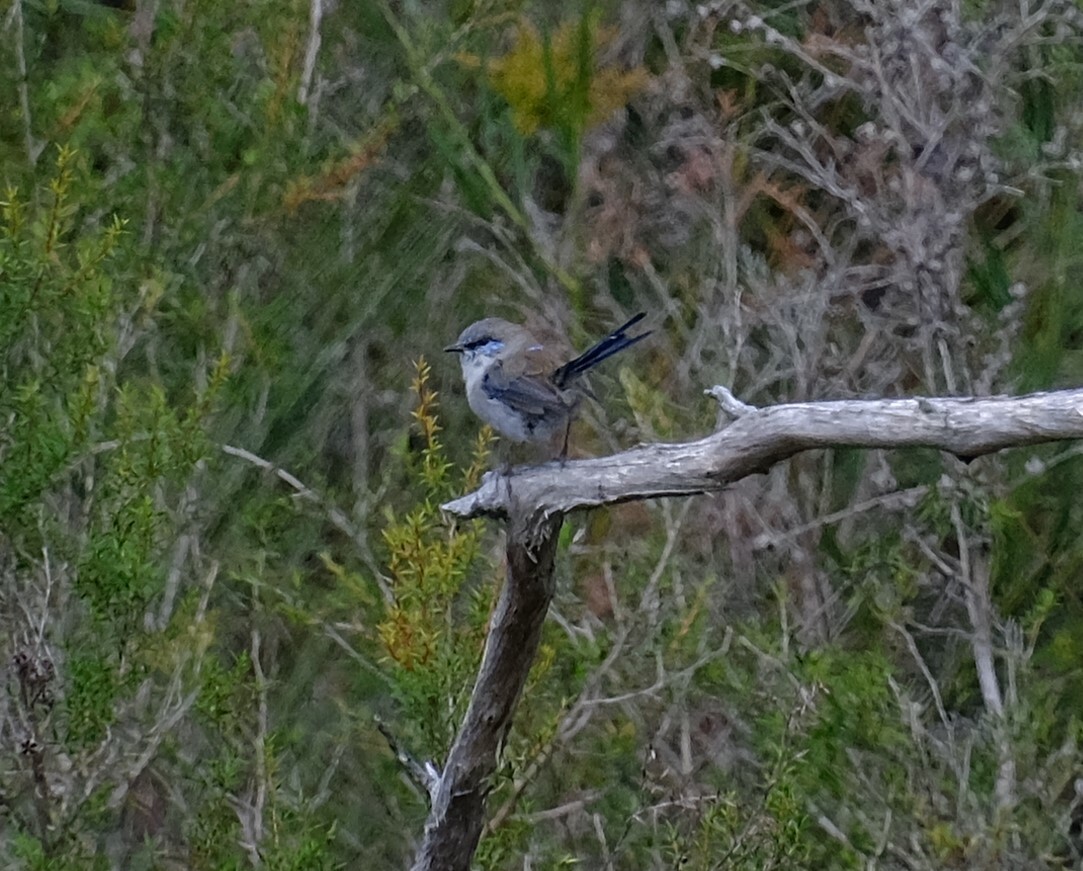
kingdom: Animalia
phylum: Chordata
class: Aves
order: Passeriformes
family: Maluridae
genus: Malurus
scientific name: Malurus cyaneus
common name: Superb fairywren
